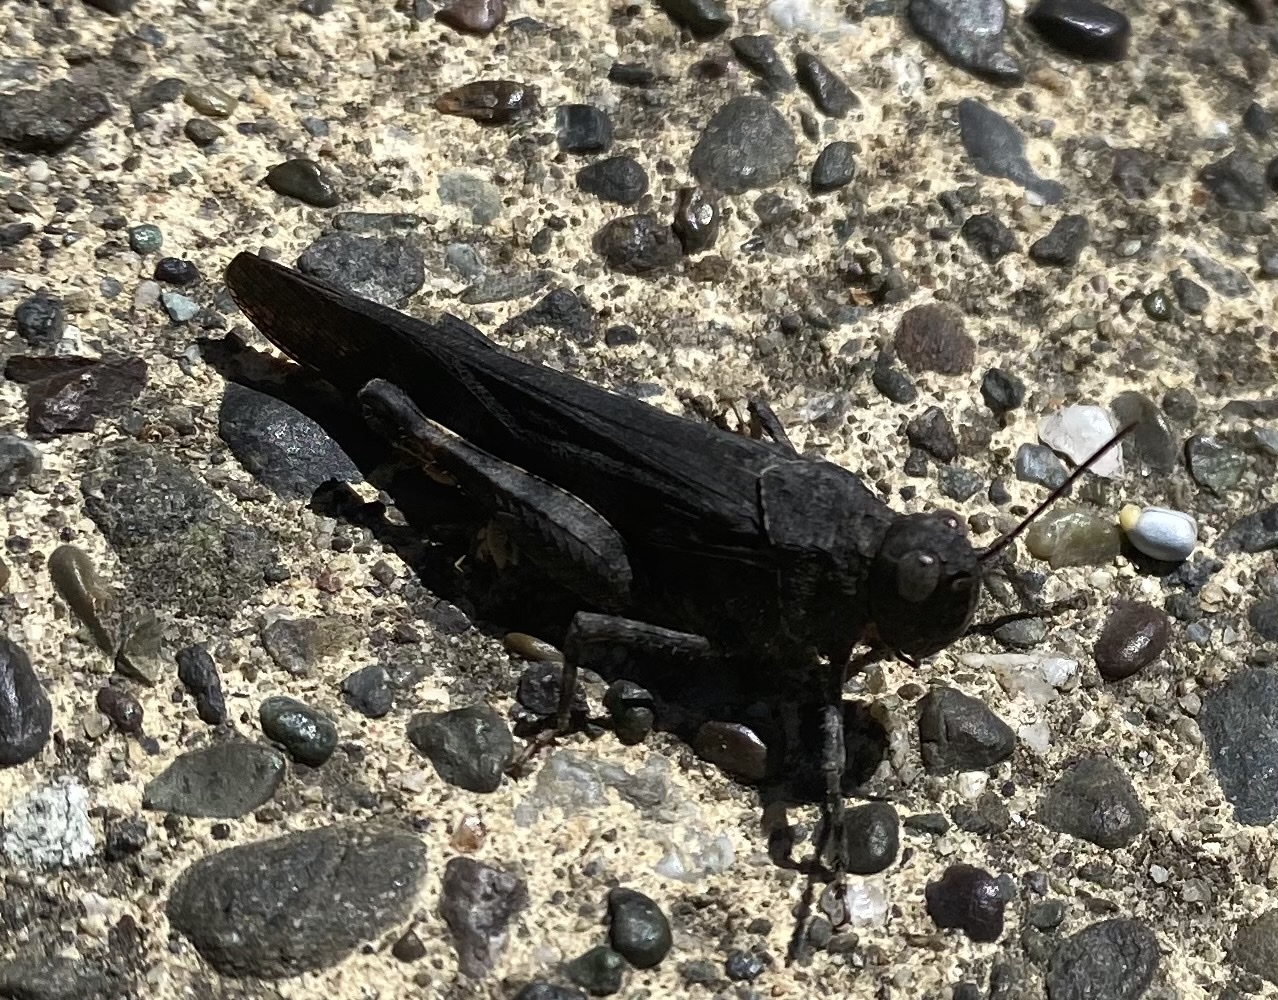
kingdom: Animalia
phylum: Arthropoda
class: Insecta
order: Orthoptera
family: Acrididae
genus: Trimerotropis
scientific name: Trimerotropis fontana
